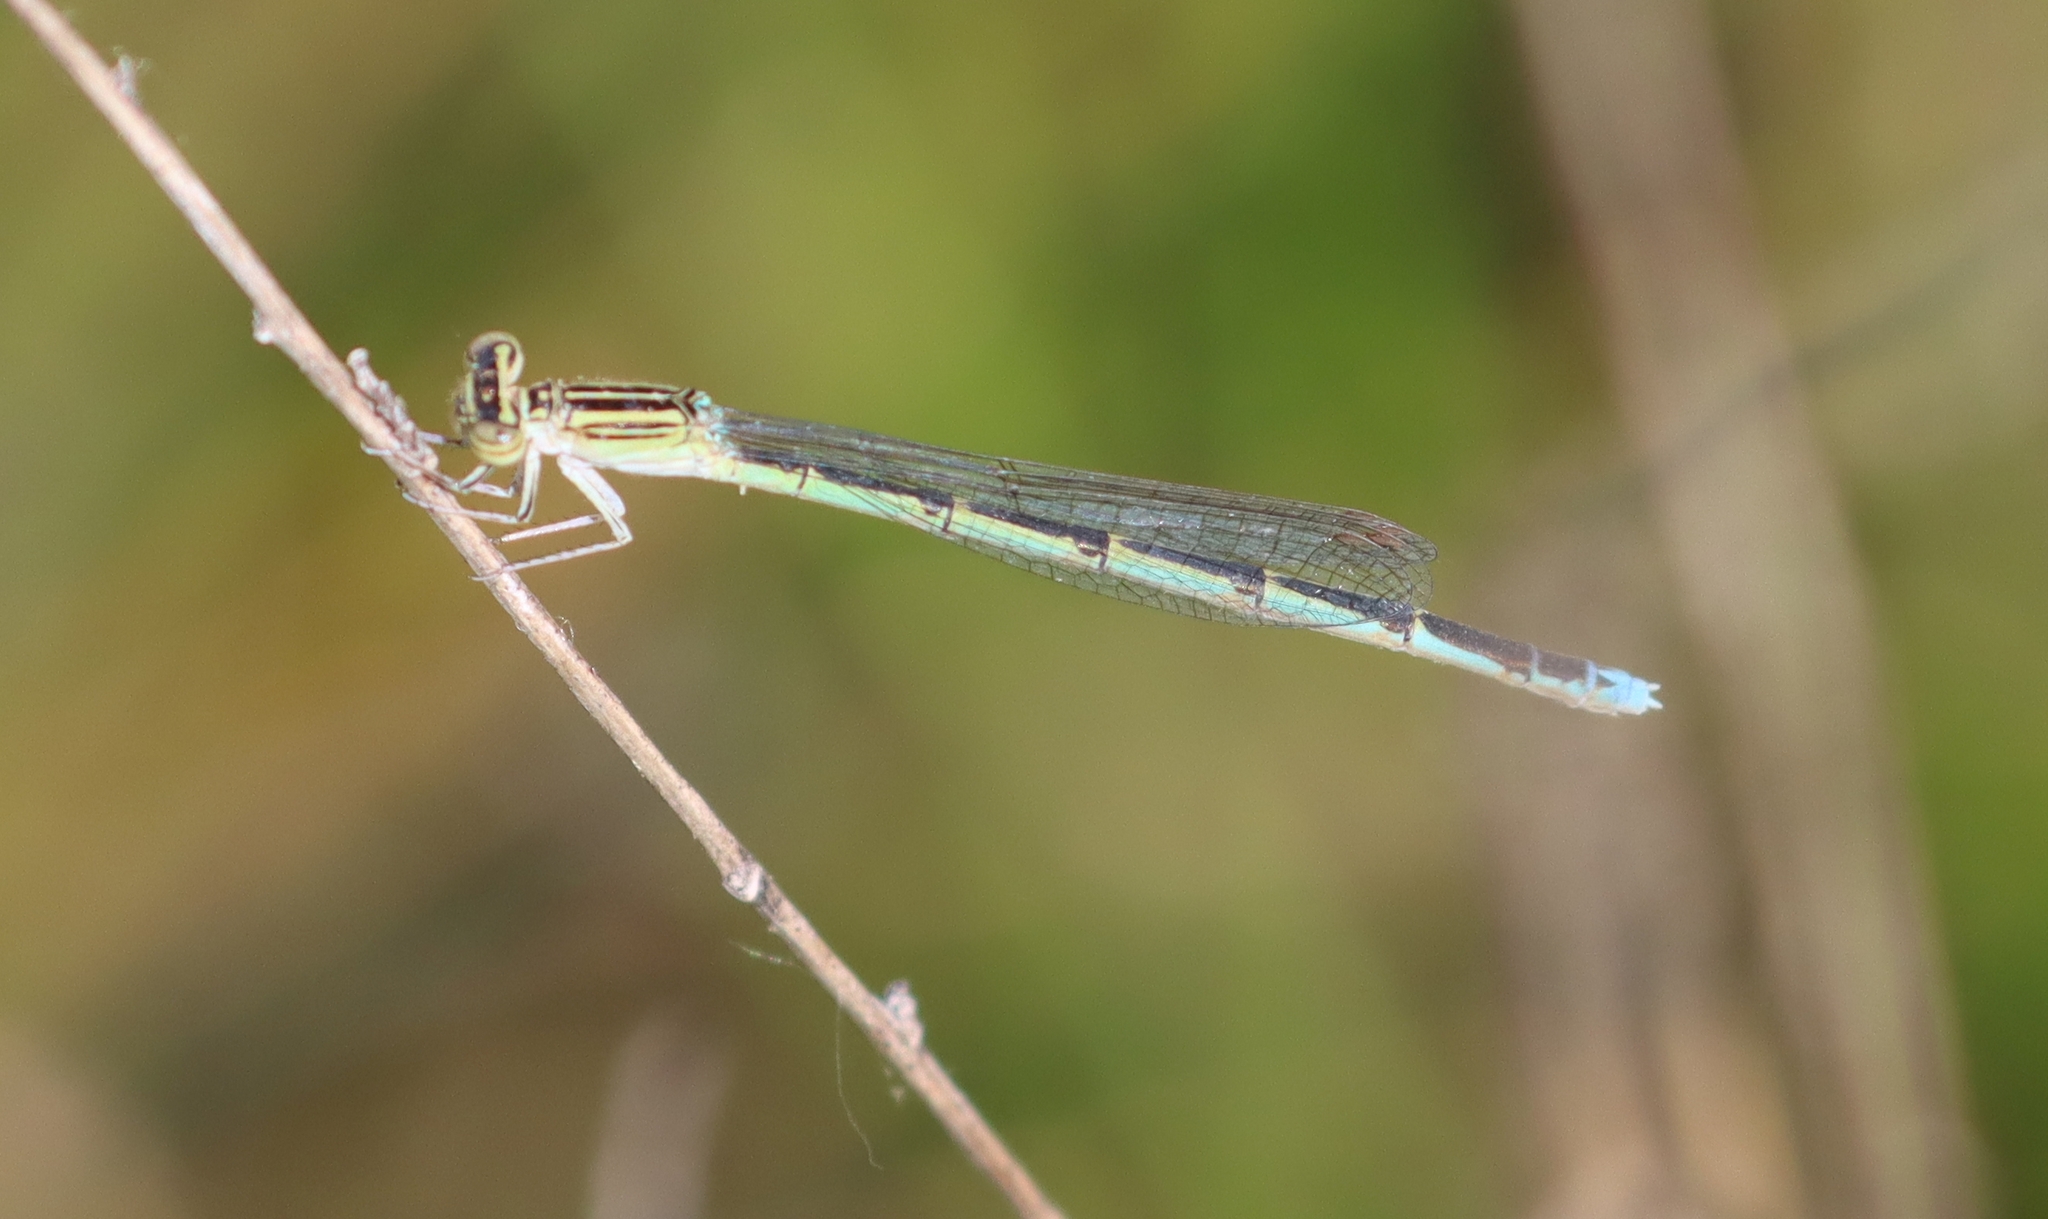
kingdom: Animalia
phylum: Arthropoda
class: Insecta
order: Odonata
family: Coenagrionidae
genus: Enallagma
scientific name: Enallagma basidens
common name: Double-striped bluet
